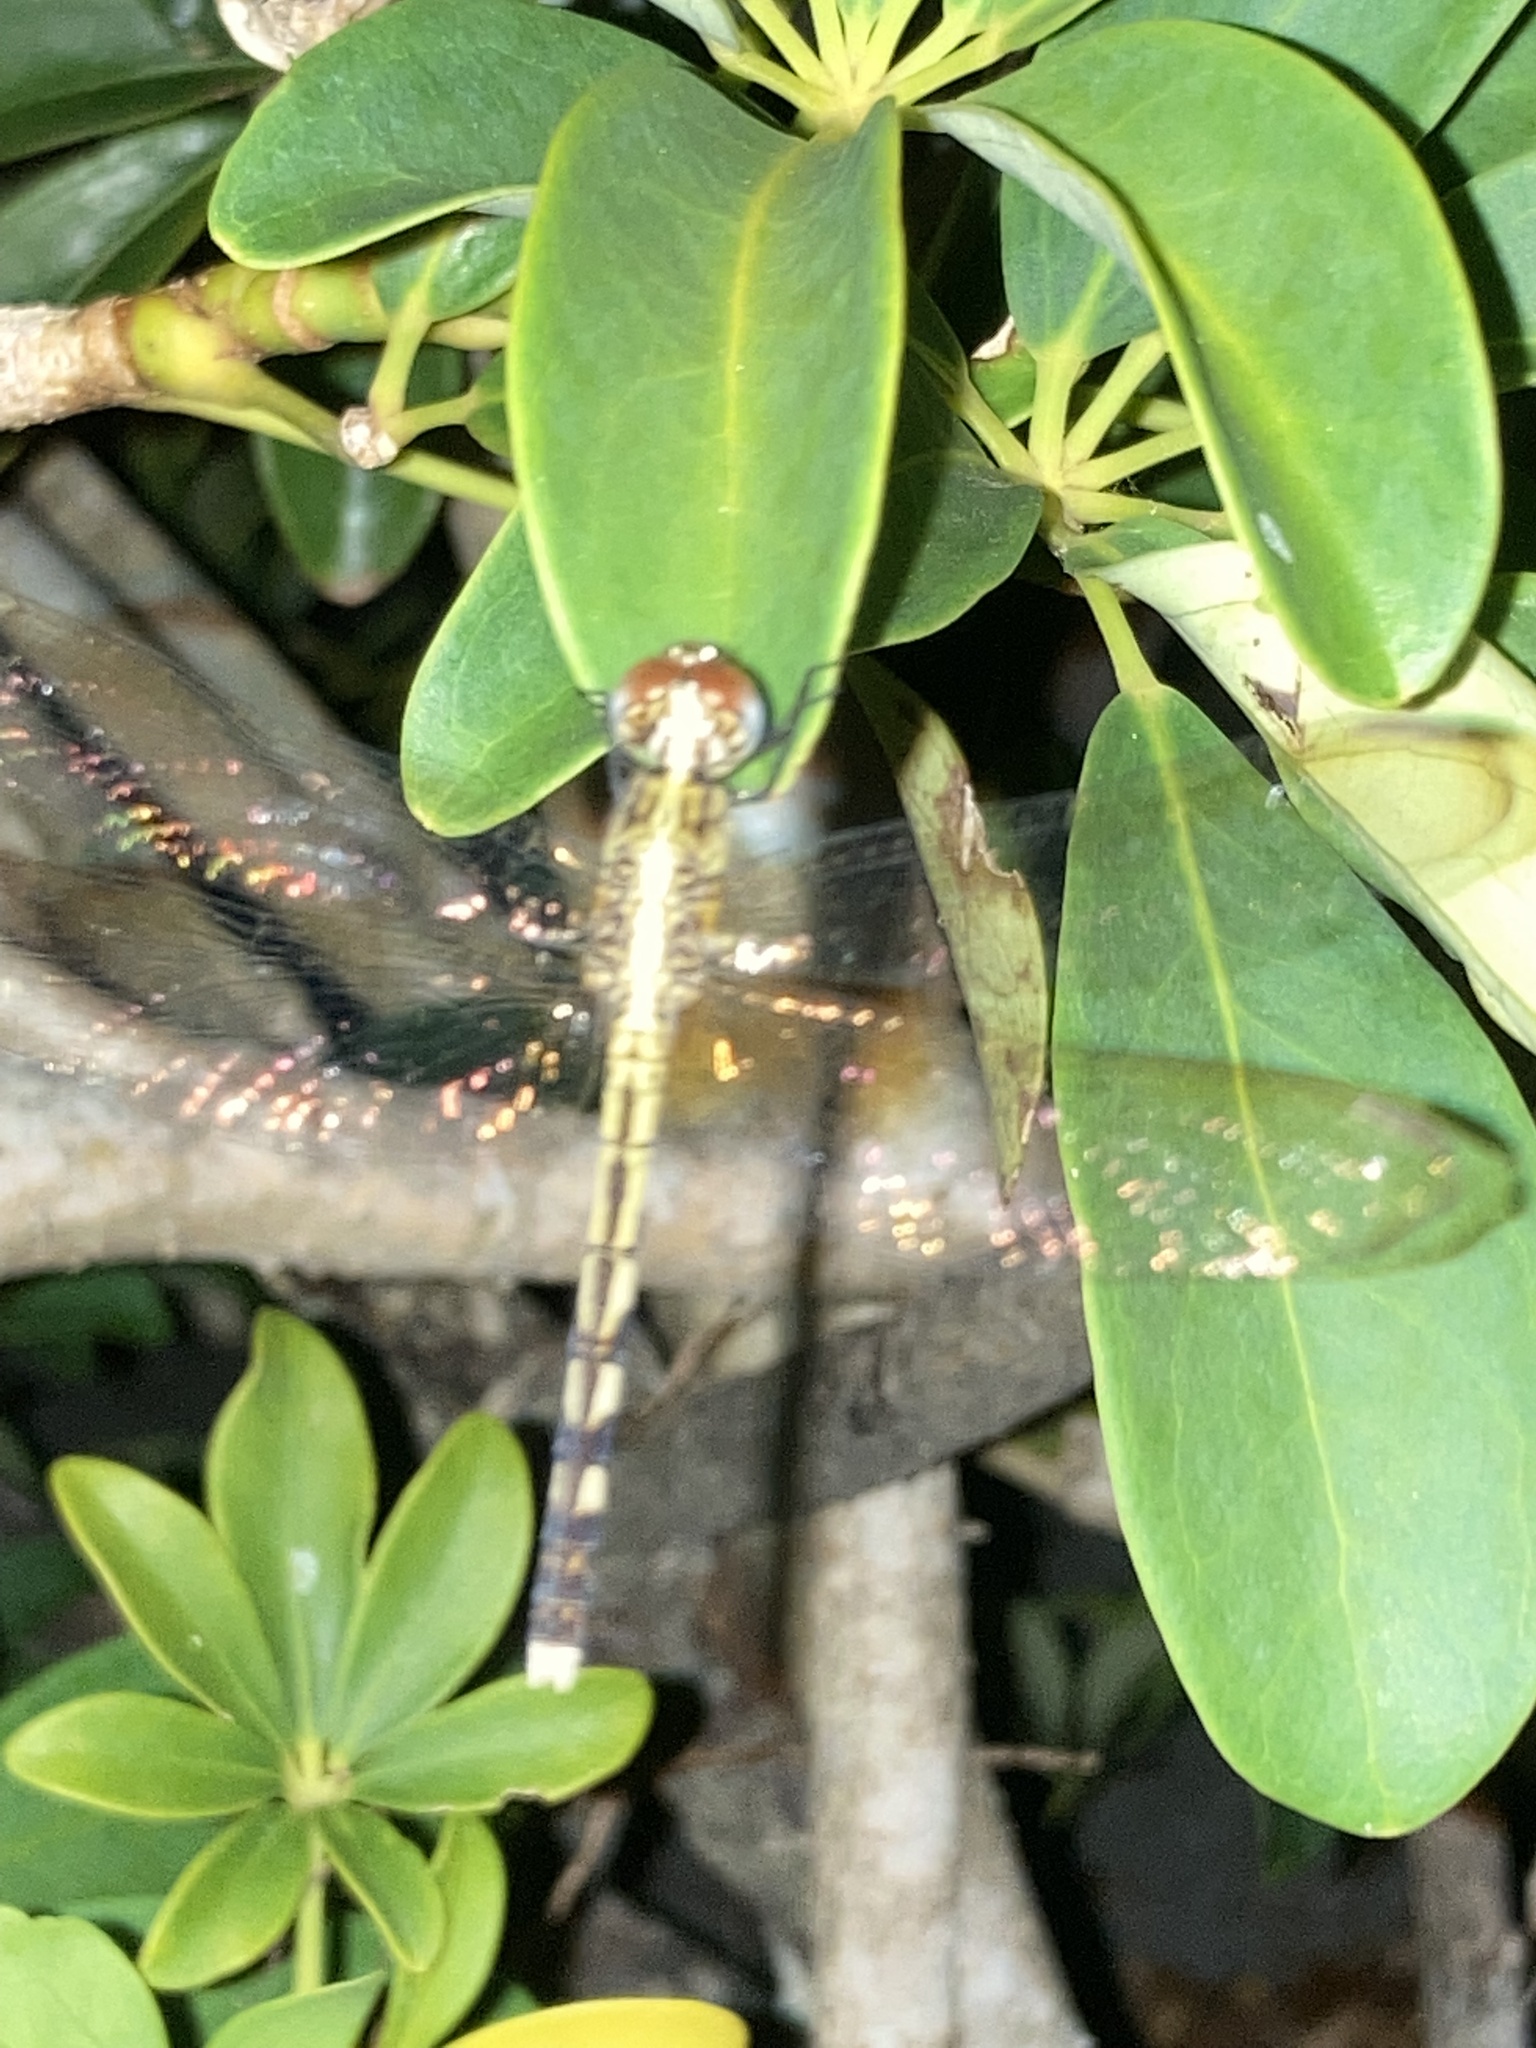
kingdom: Animalia
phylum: Arthropoda
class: Insecta
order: Odonata
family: Libellulidae
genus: Erythrodiplax
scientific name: Erythrodiplax umbrata
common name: Band-winged dragonlet
